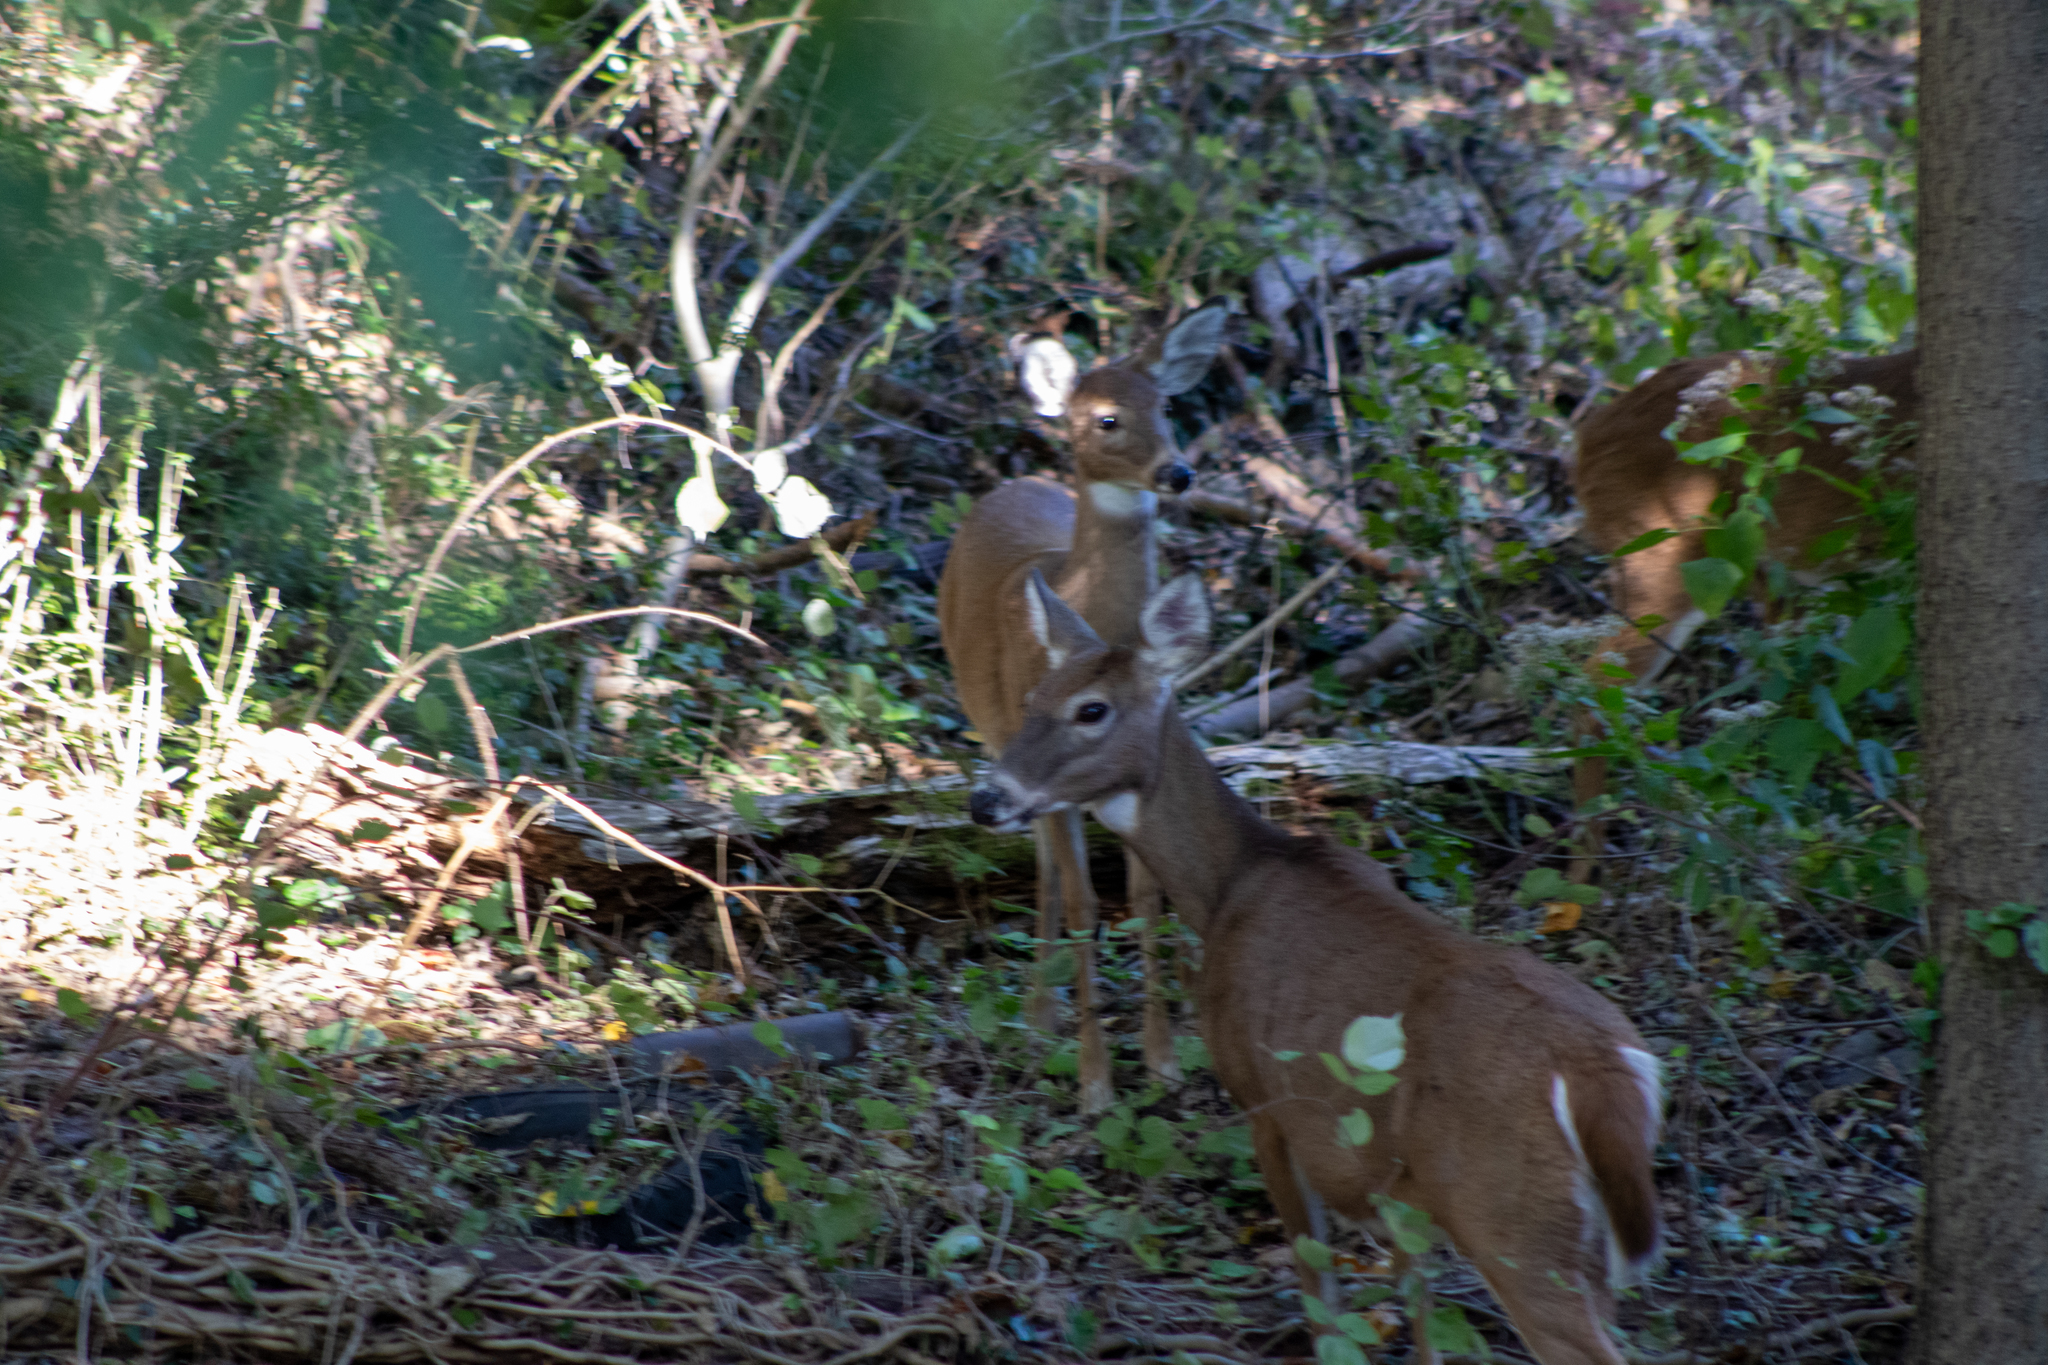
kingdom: Animalia
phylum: Chordata
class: Mammalia
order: Artiodactyla
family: Cervidae
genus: Odocoileus
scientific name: Odocoileus virginianus
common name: White-tailed deer
